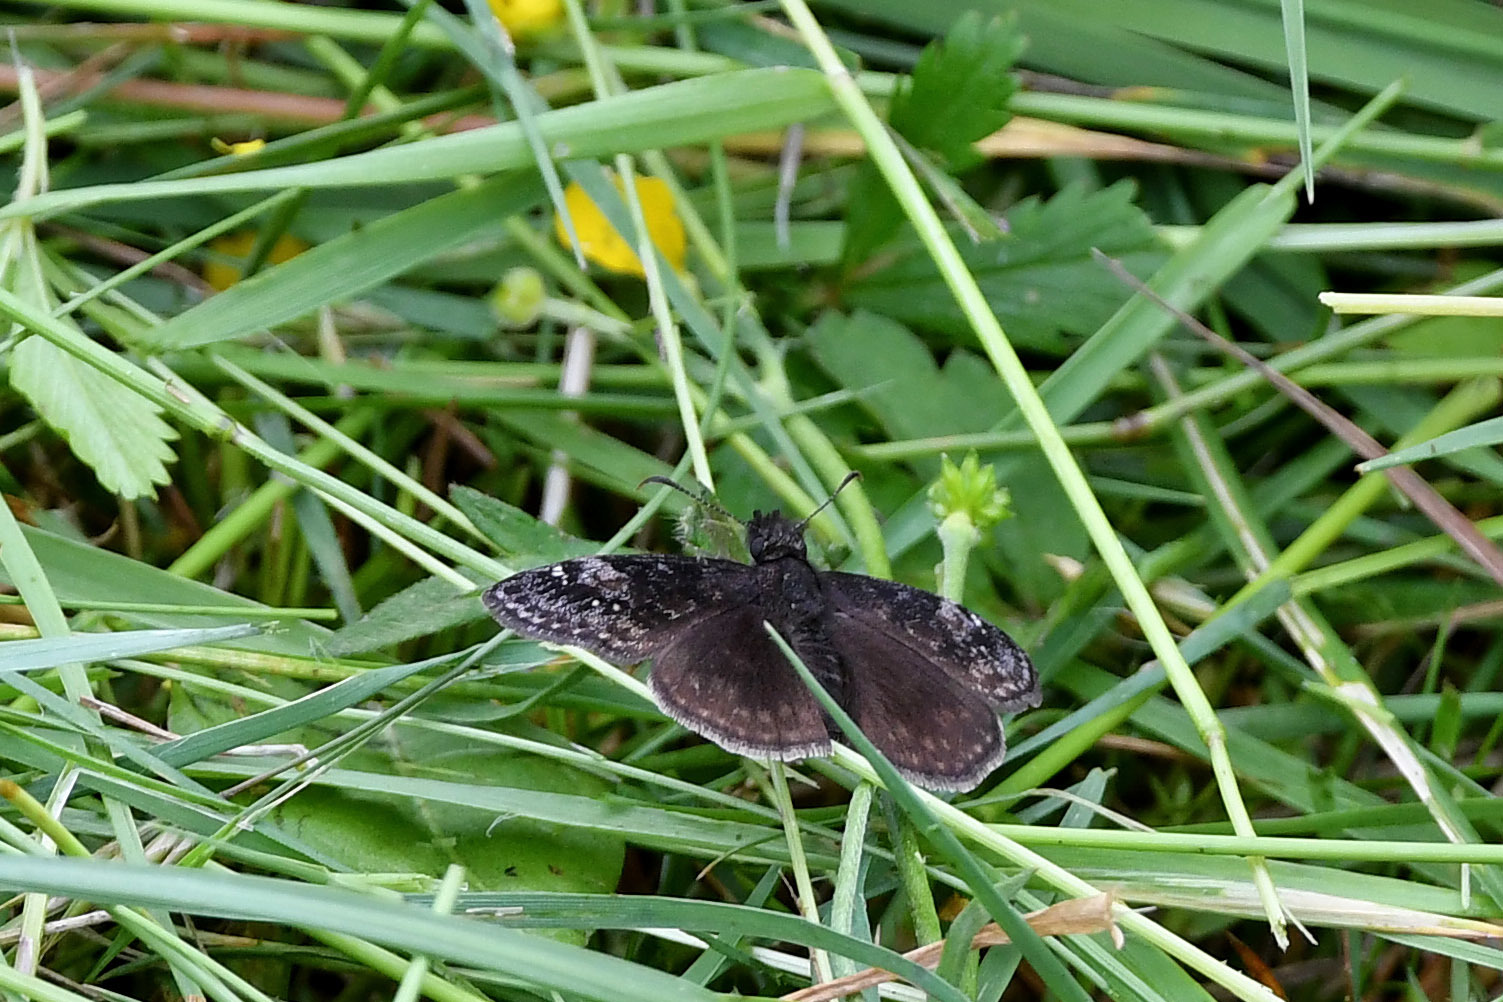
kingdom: Animalia
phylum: Arthropoda
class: Insecta
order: Lepidoptera
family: Hesperiidae
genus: Erynnis
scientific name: Erynnis baptisiae
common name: Wild indigo duskywing
